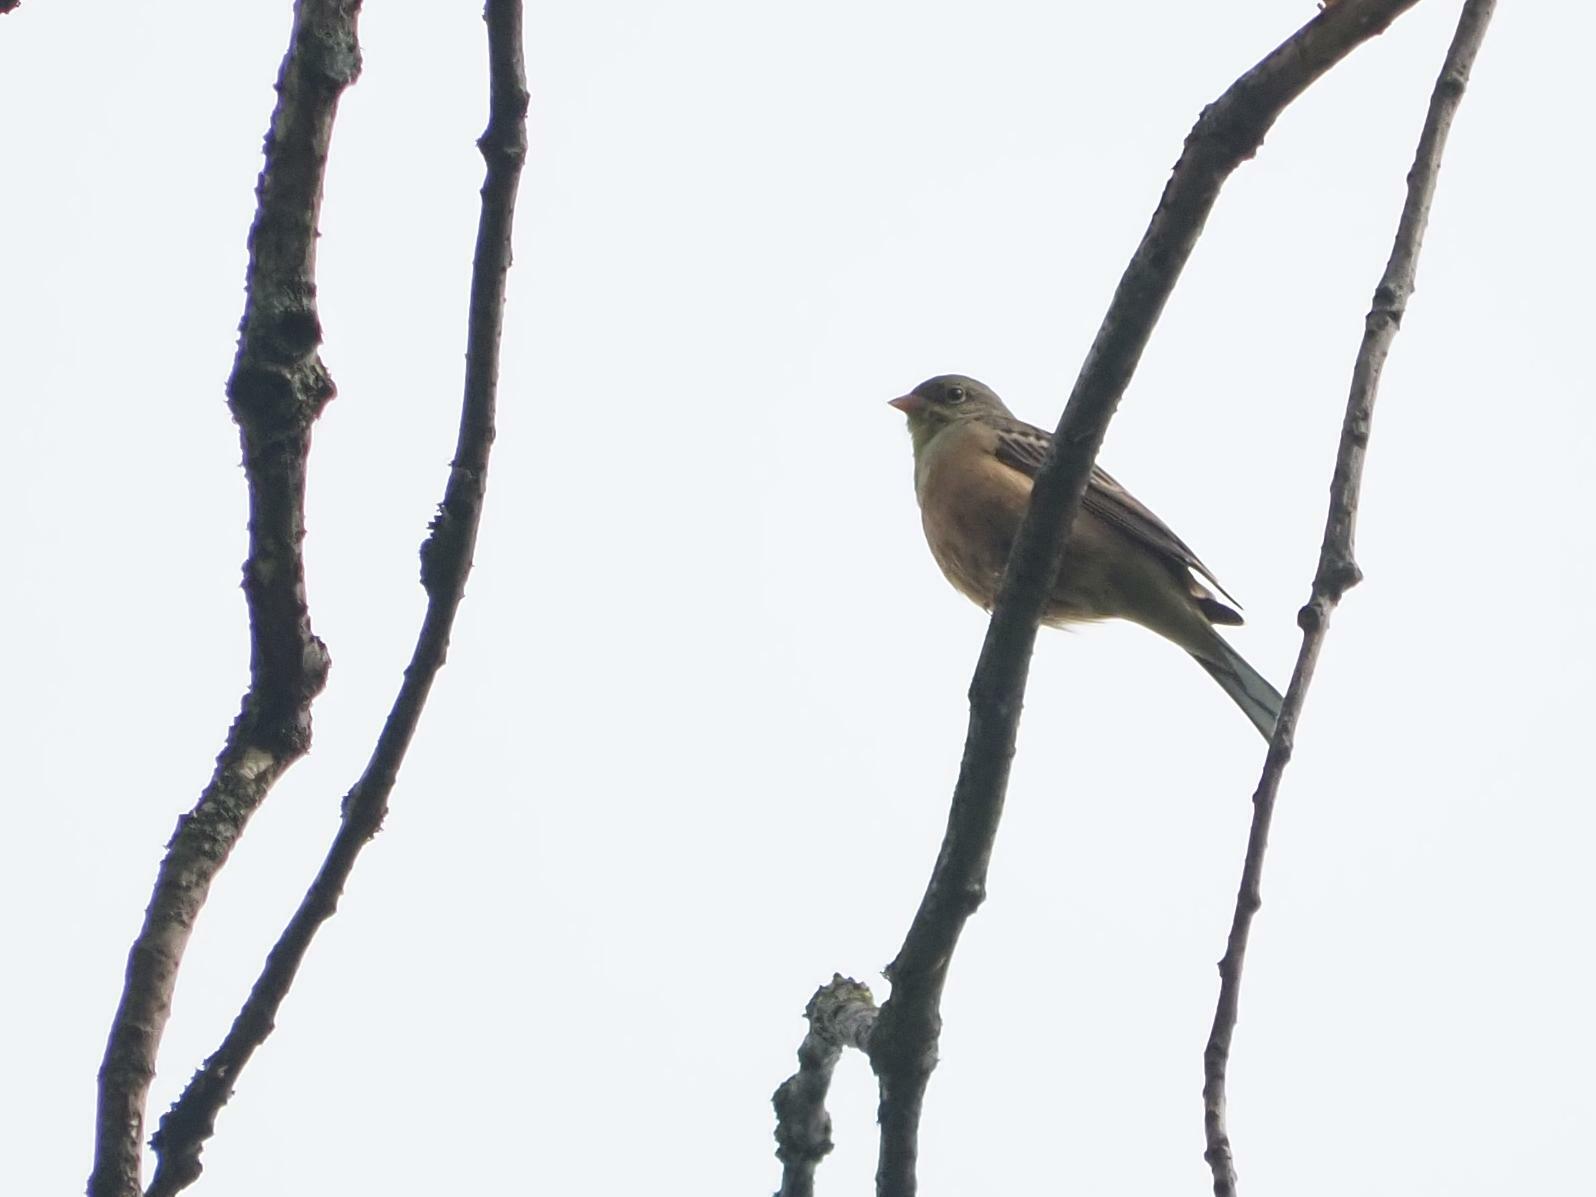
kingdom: Animalia
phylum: Chordata
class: Aves
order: Passeriformes
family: Emberizidae
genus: Emberiza
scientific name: Emberiza hortulana
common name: Ortolan bunting
